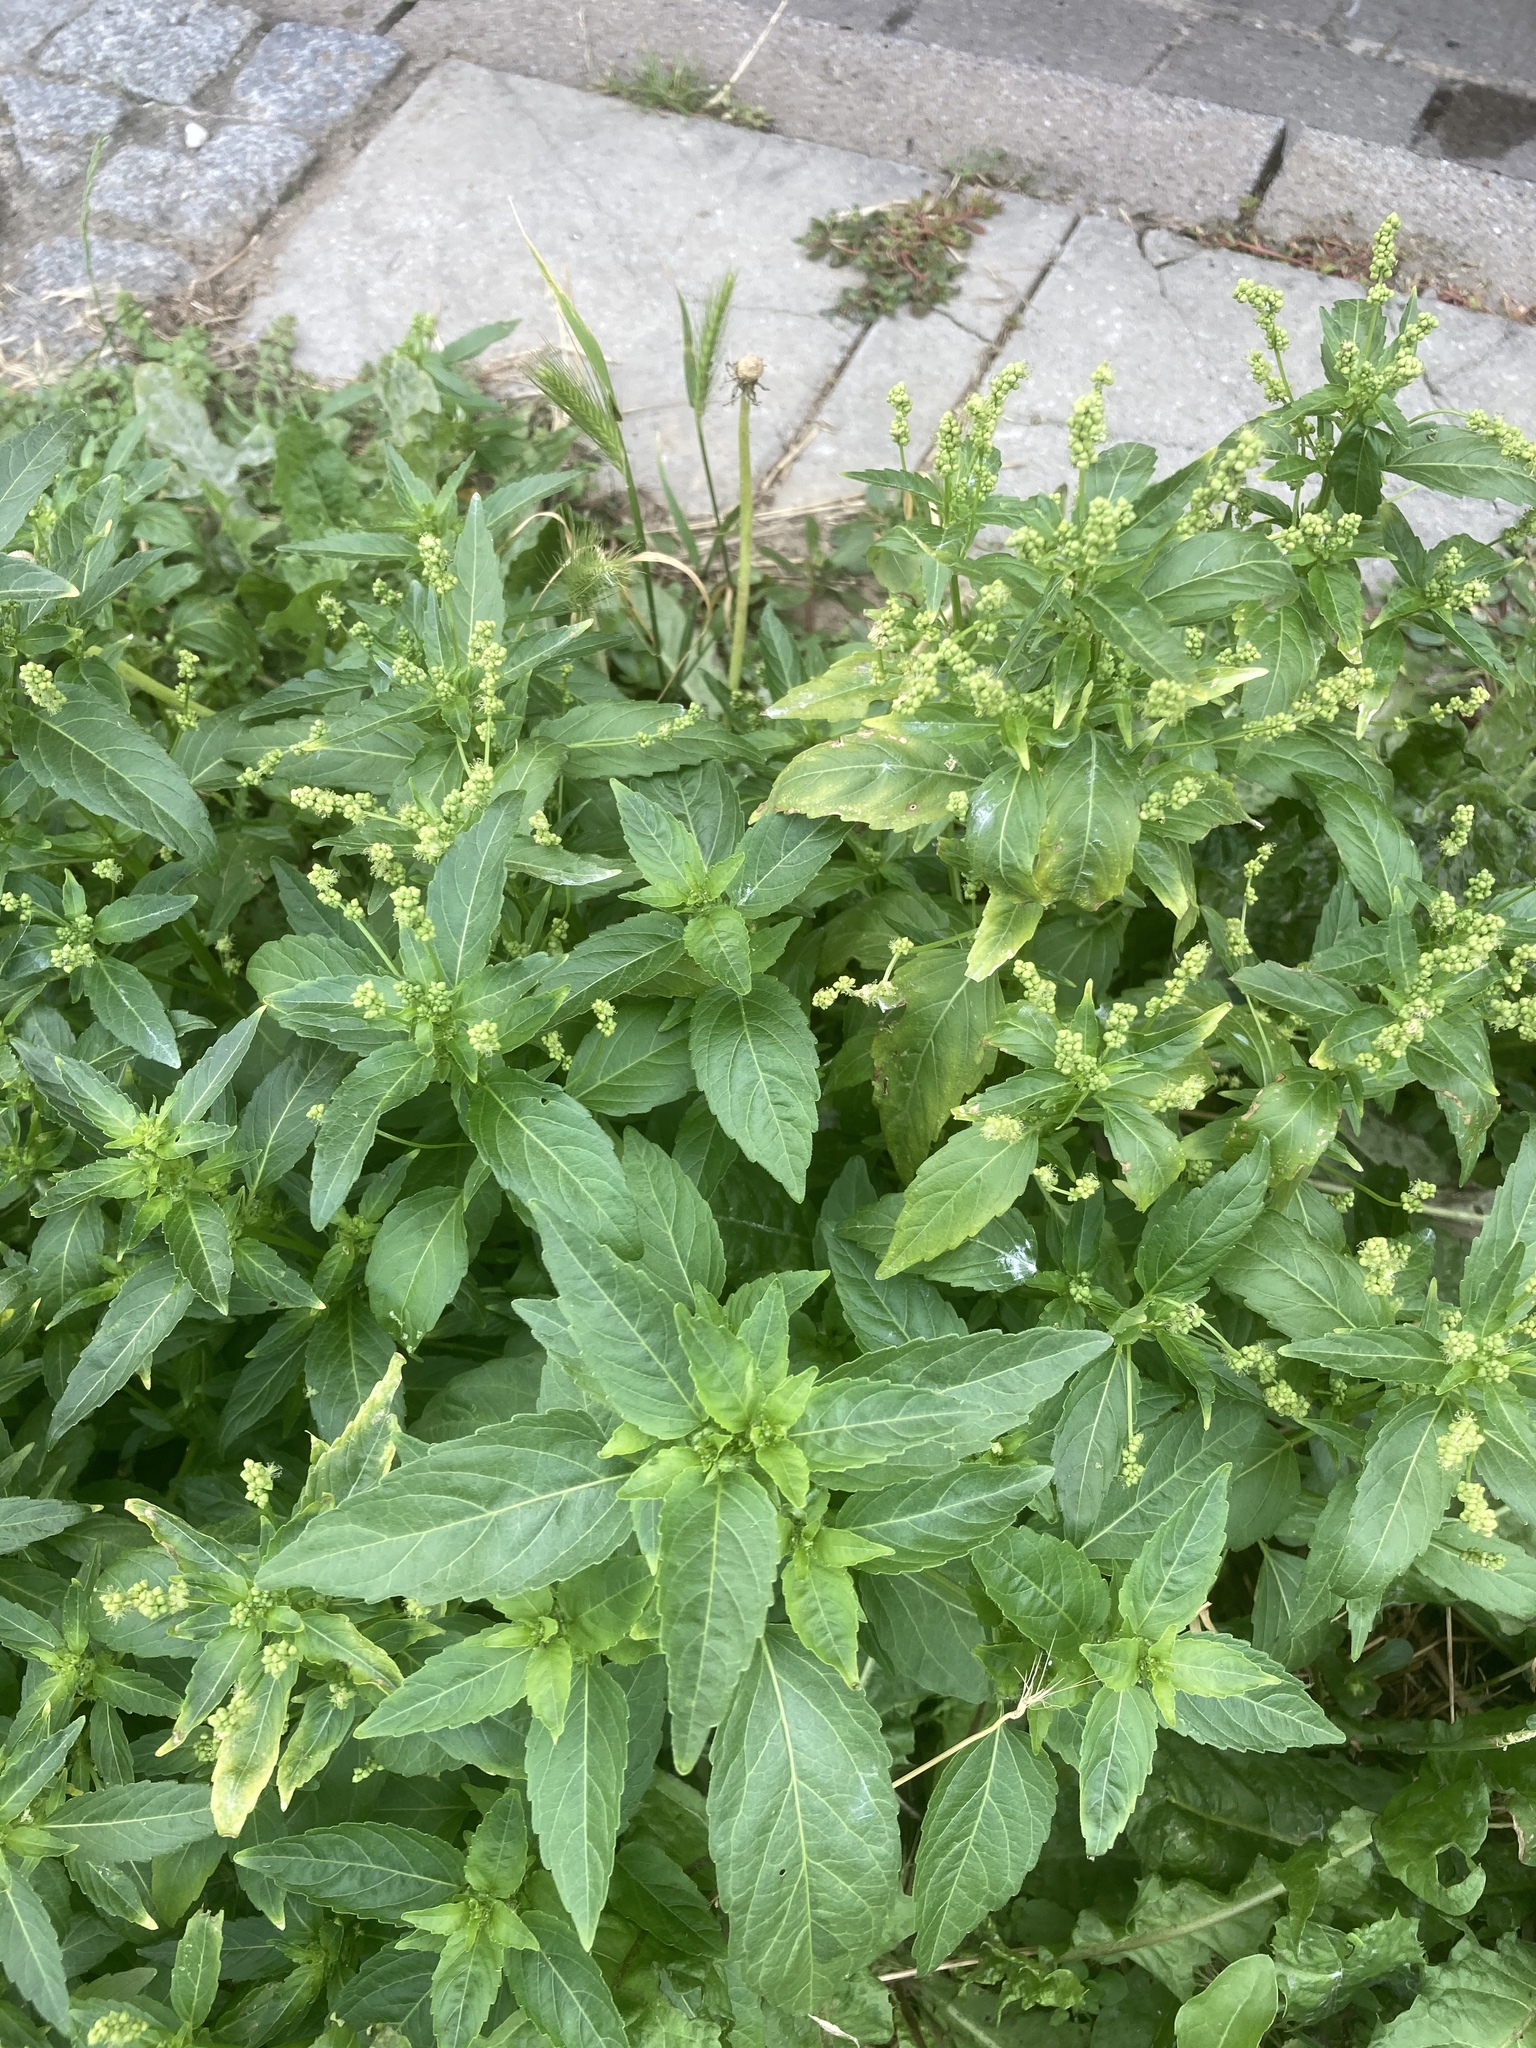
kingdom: Plantae
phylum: Tracheophyta
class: Magnoliopsida
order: Malpighiales
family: Euphorbiaceae
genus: Mercurialis
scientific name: Mercurialis perennis
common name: Dog mercury
